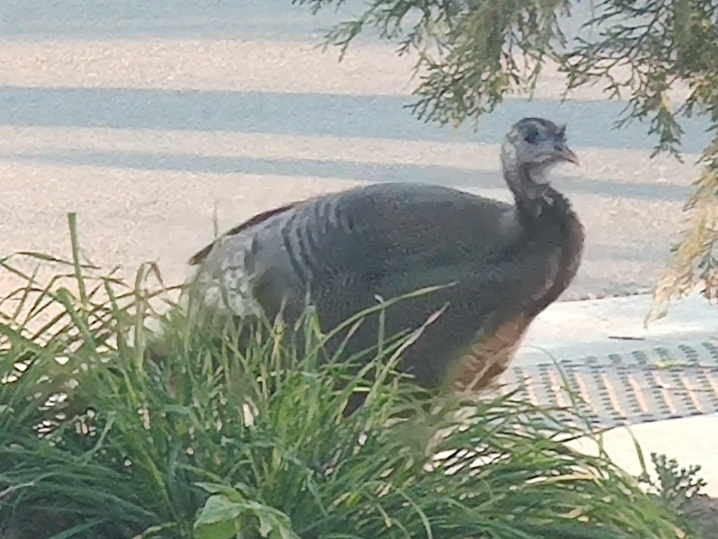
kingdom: Animalia
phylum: Chordata
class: Aves
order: Galliformes
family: Phasianidae
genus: Meleagris
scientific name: Meleagris gallopavo
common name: Wild turkey
